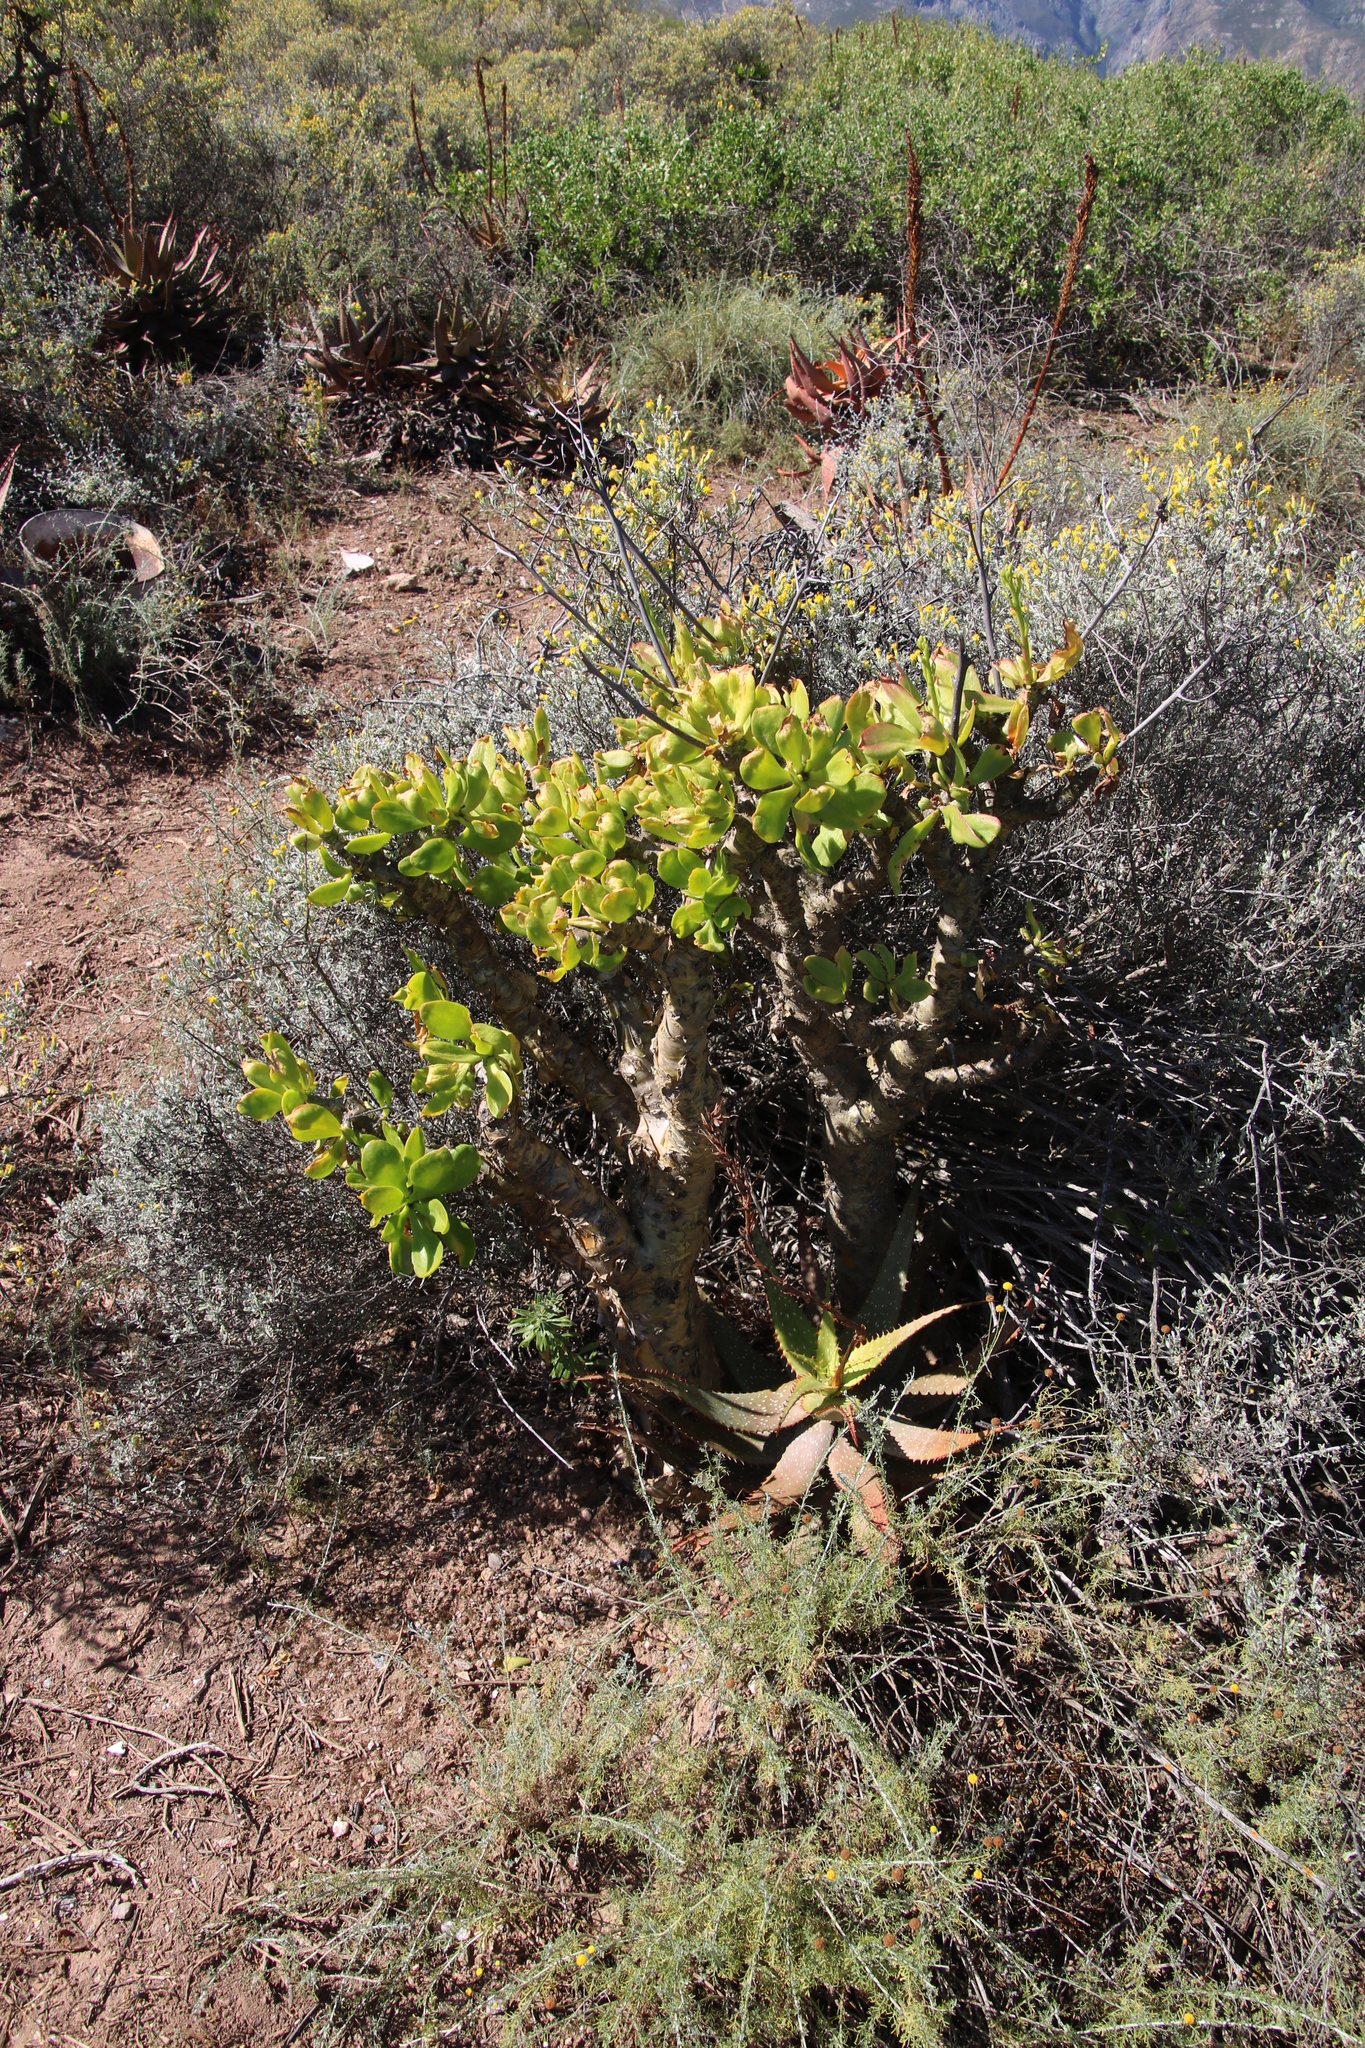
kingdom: Plantae
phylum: Tracheophyta
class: Magnoliopsida
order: Saxifragales
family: Crassulaceae
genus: Tylecodon
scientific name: Tylecodon paniculatus
